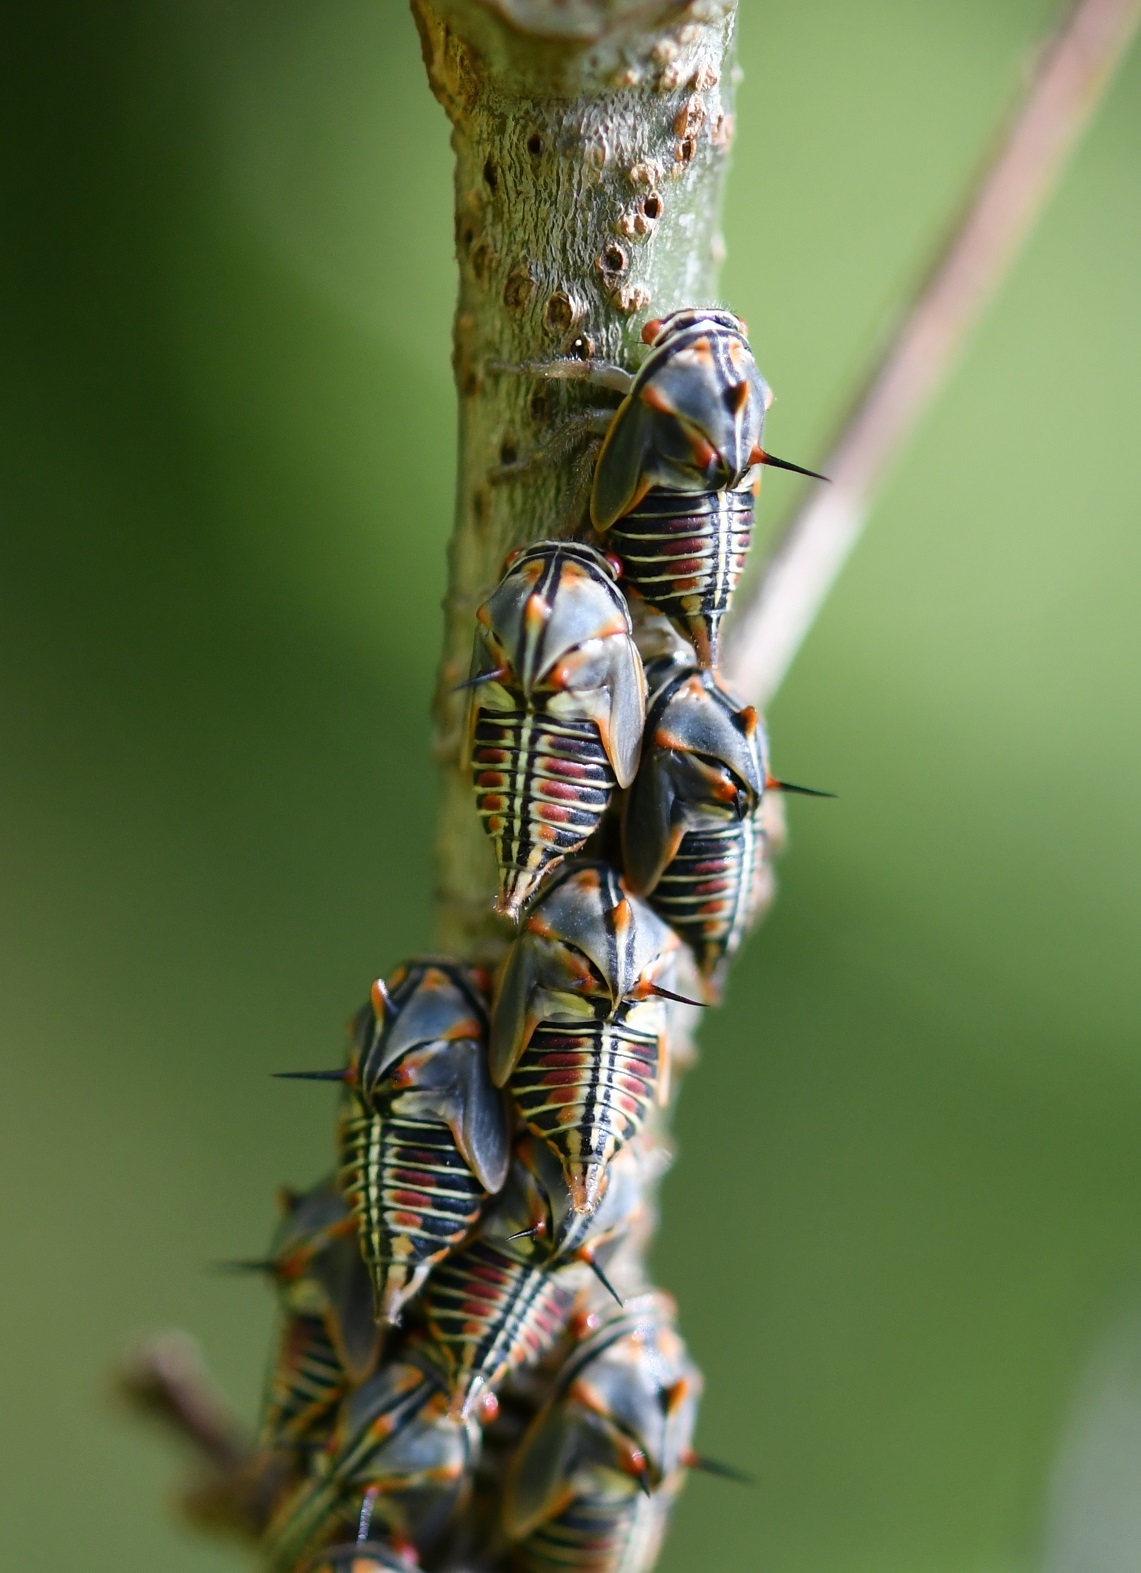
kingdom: Animalia
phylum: Arthropoda
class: Insecta
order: Hemiptera
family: Membracidae
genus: Platycotis
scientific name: Platycotis tuberculata
